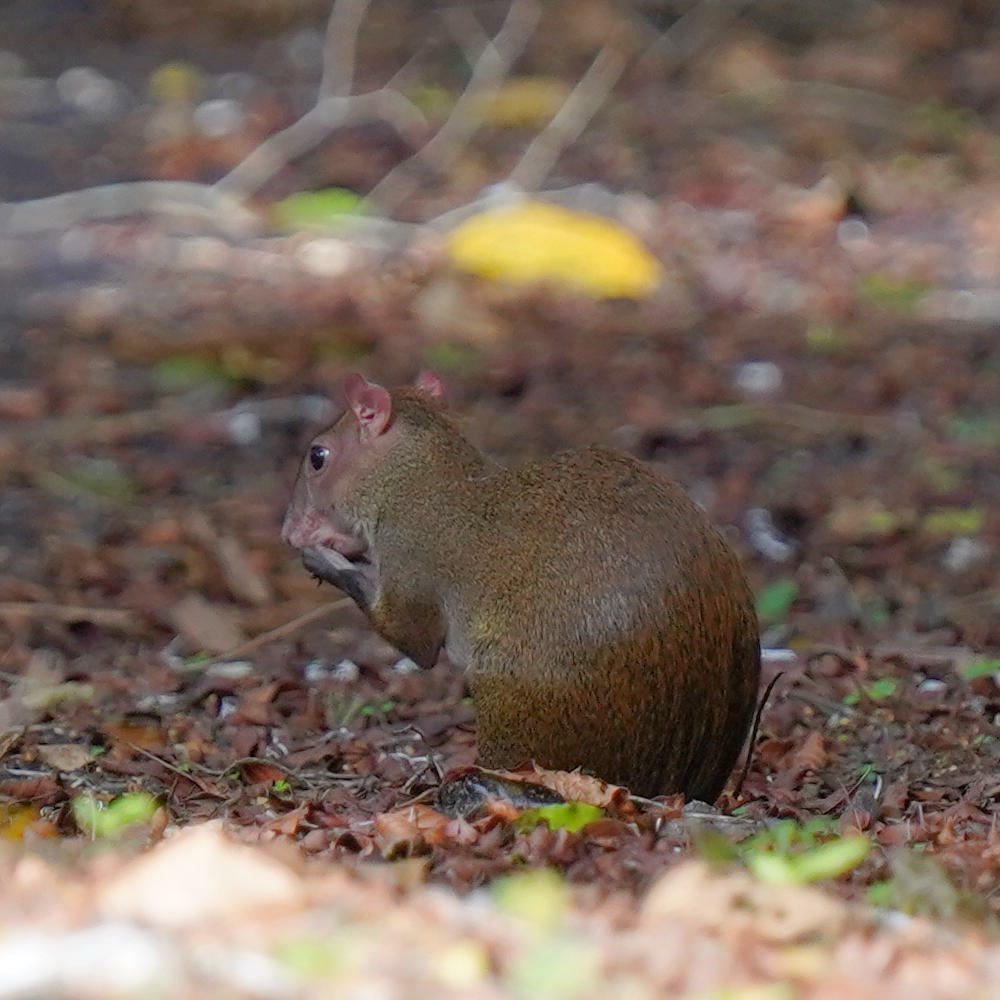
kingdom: Animalia
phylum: Chordata
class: Mammalia
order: Rodentia
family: Dasyproctidae
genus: Dasyprocta
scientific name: Dasyprocta punctata
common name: Central american agouti
